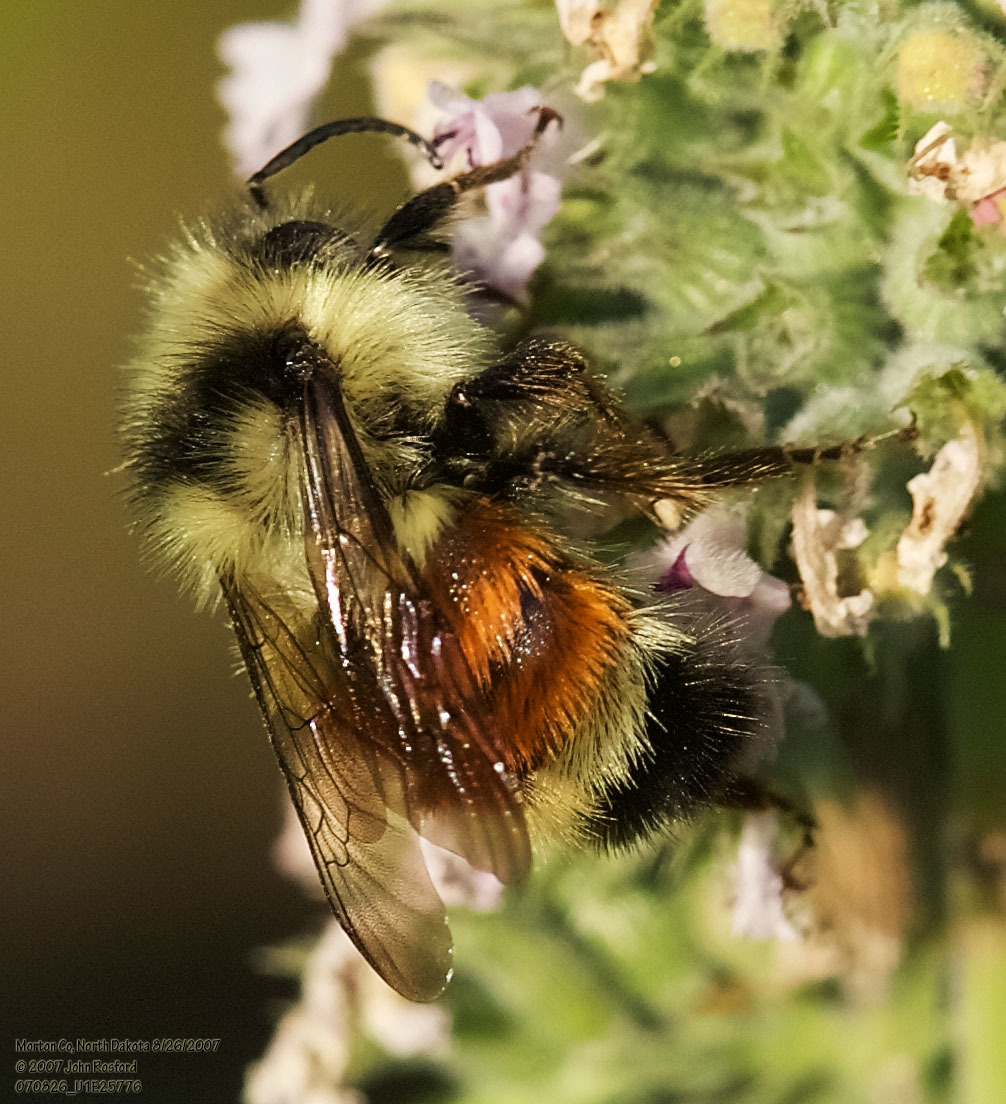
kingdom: Animalia
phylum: Arthropoda
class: Insecta
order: Hymenoptera
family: Apidae
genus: Bombus
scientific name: Bombus ternarius
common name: Tri-colored bumble bee
